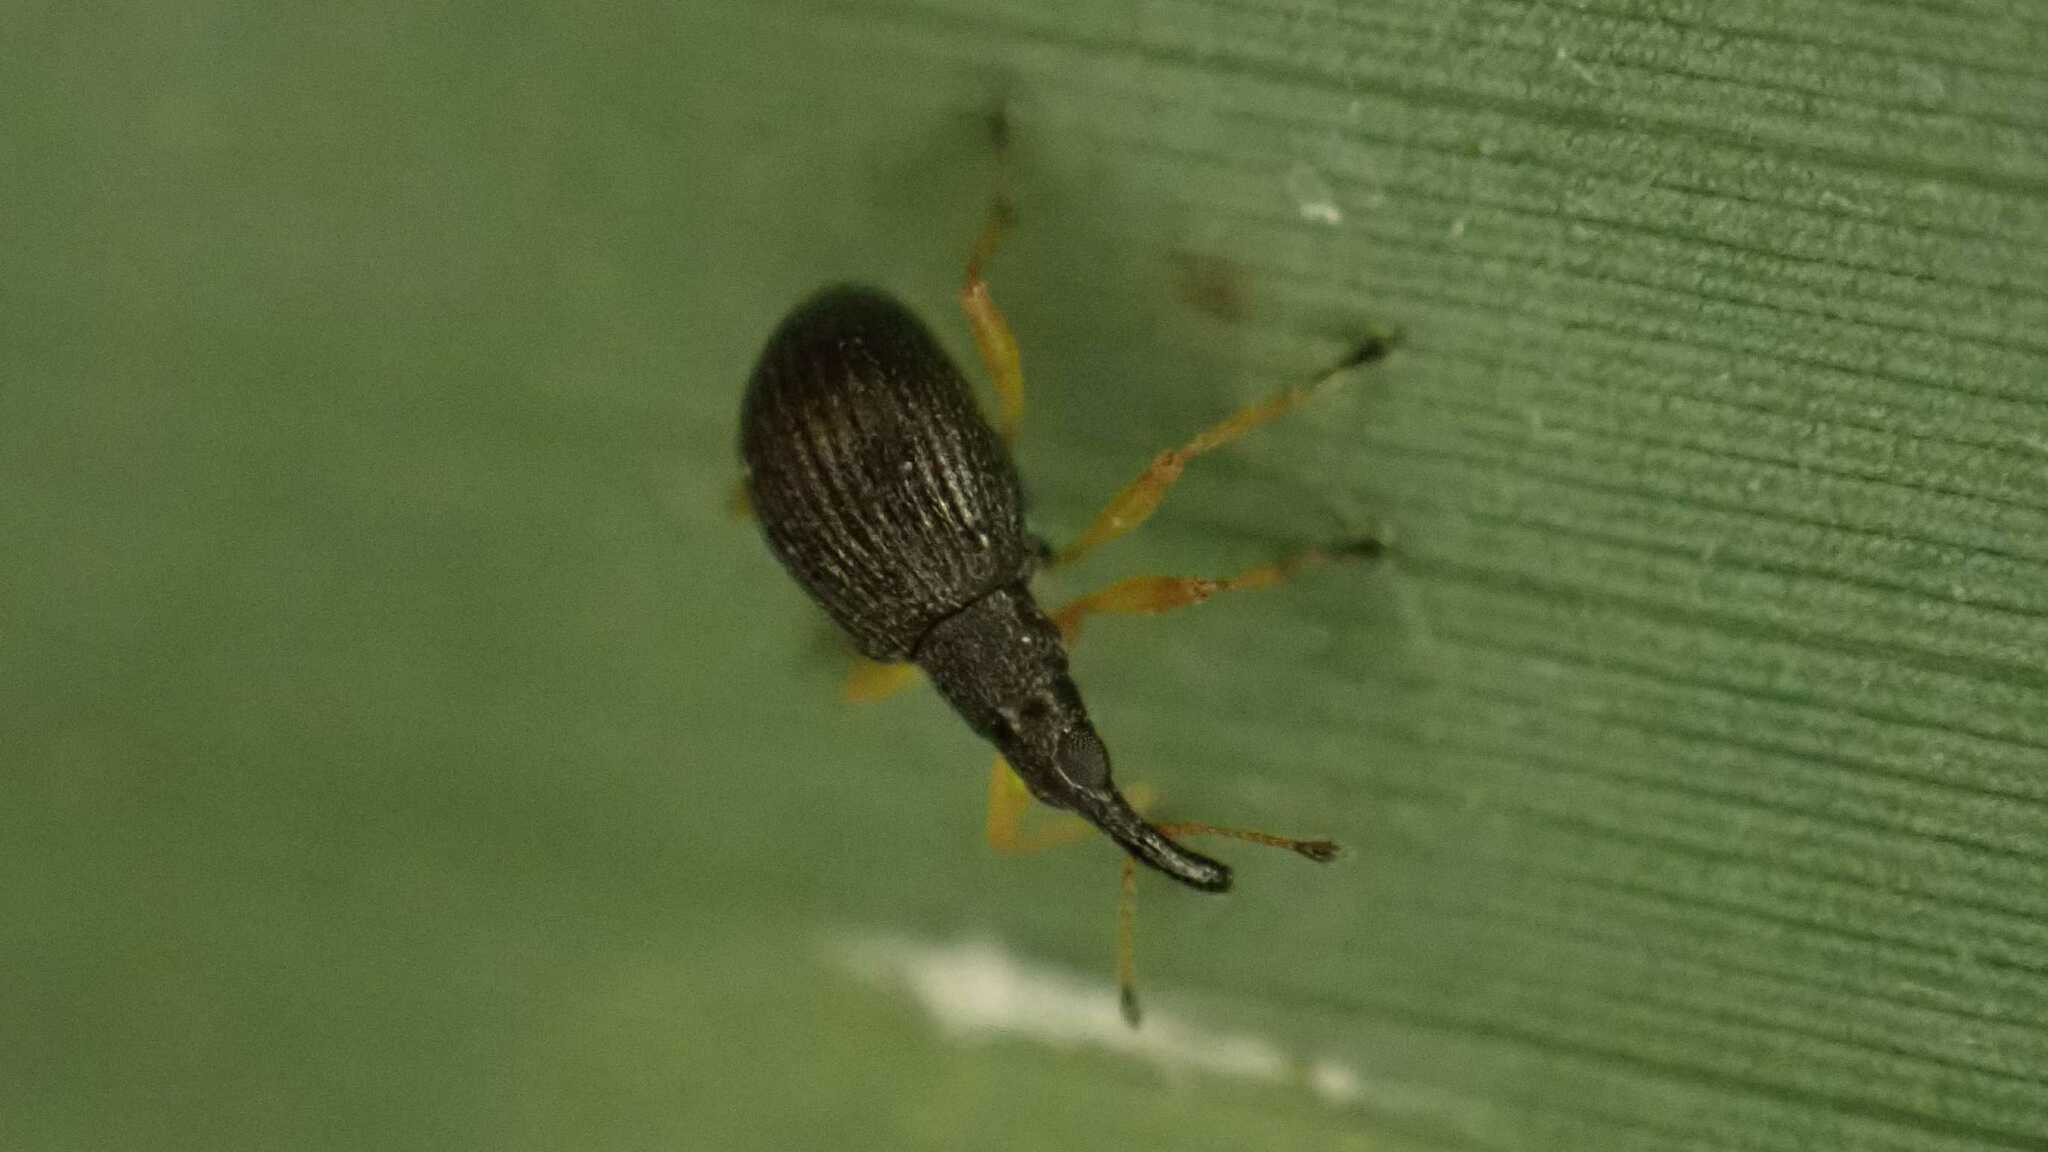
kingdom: Animalia
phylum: Arthropoda
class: Insecta
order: Coleoptera
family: Apionidae
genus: Protapion
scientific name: Protapion nigritarse
